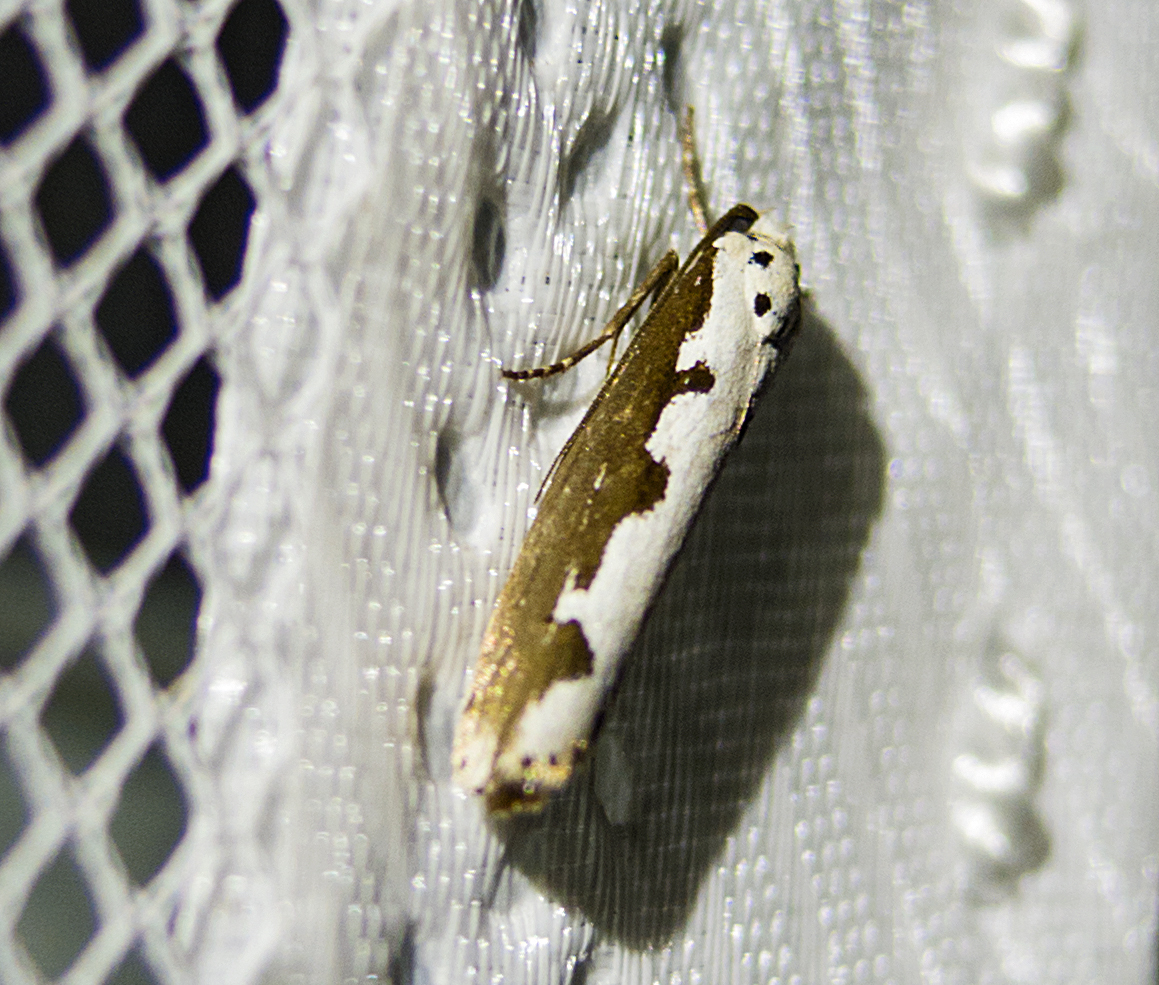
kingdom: Animalia
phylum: Arthropoda
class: Insecta
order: Lepidoptera
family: Ethmiidae
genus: Ethmia
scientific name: Ethmia bipunctella
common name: Bordered ermel
